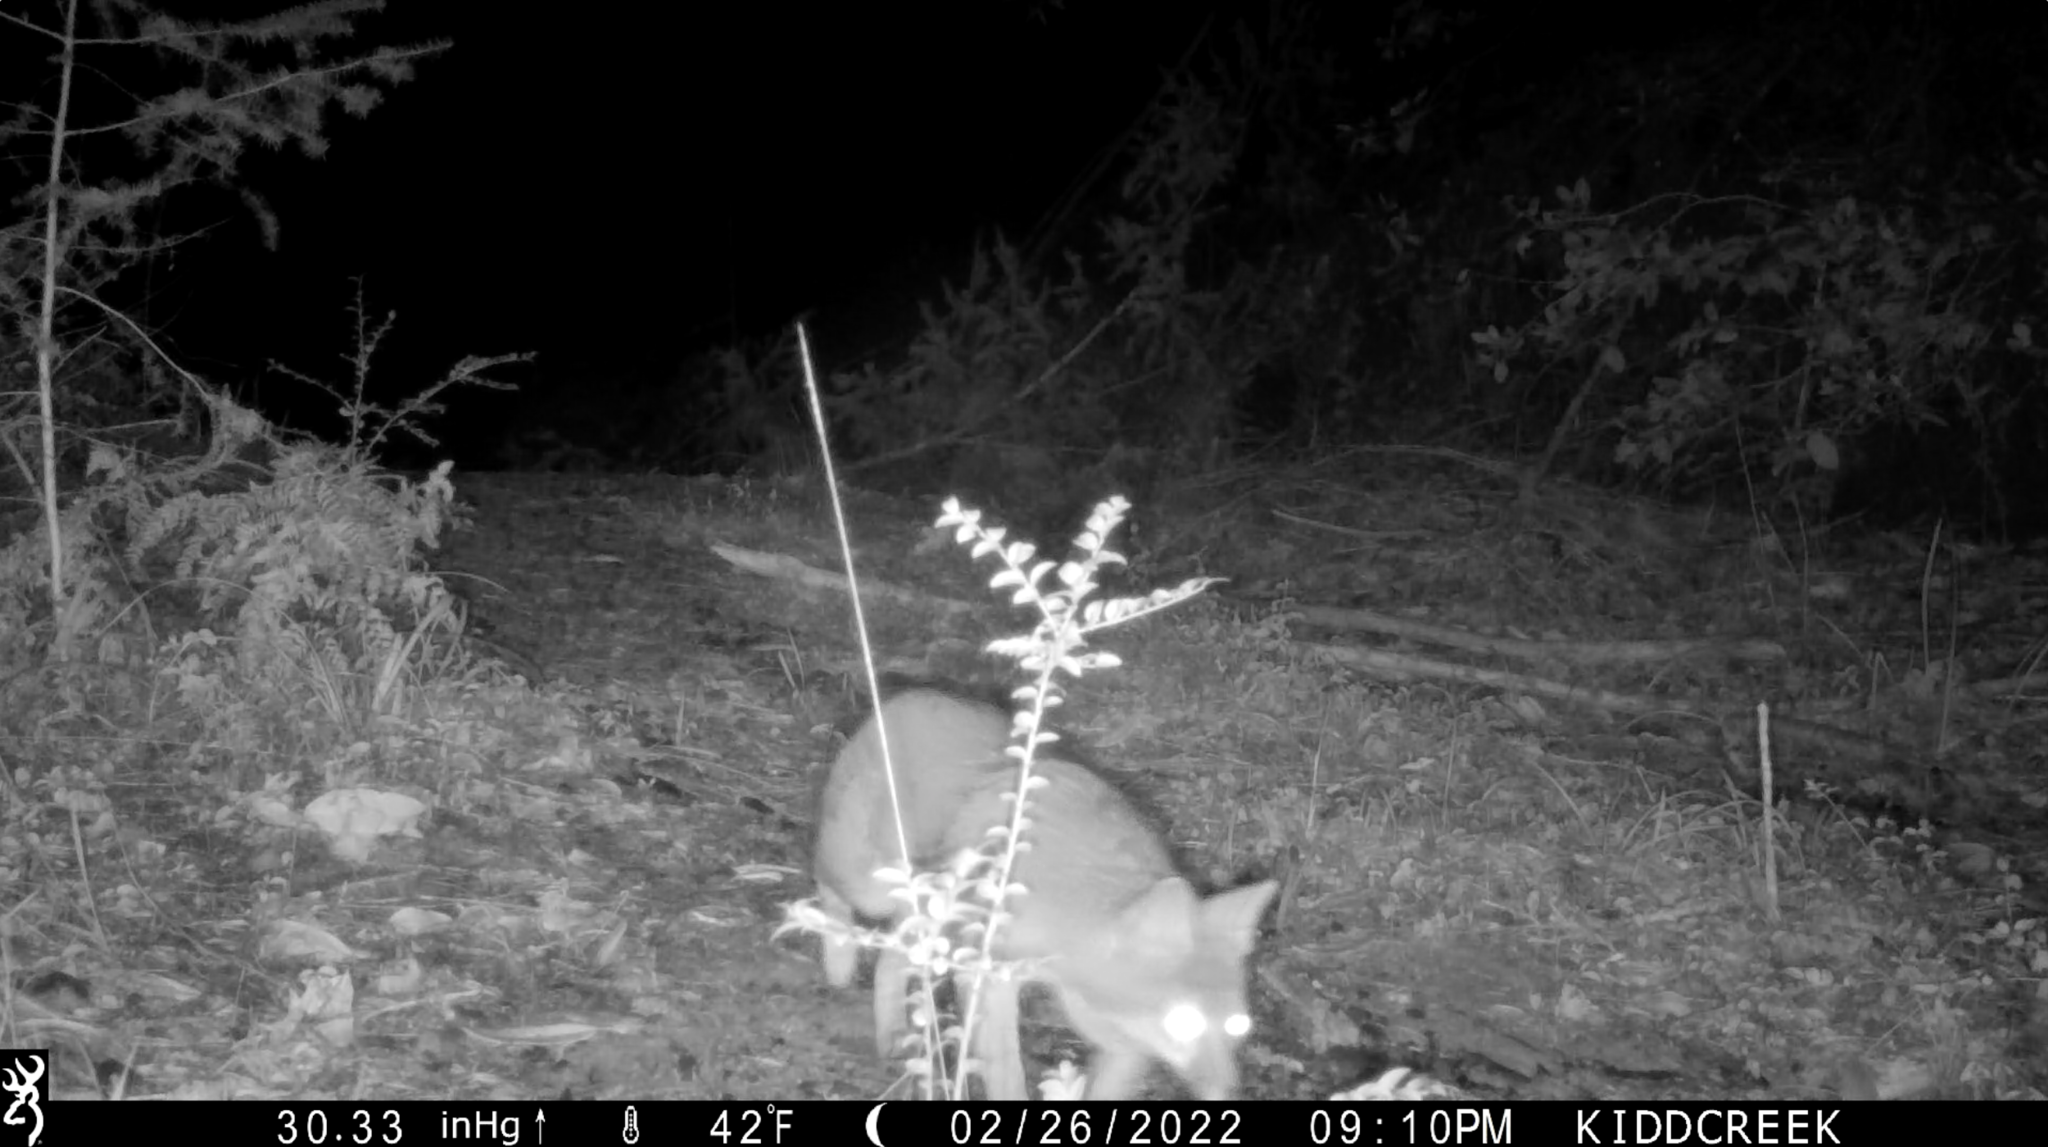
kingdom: Animalia
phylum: Chordata
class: Mammalia
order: Carnivora
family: Canidae
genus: Urocyon
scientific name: Urocyon cinereoargenteus
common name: Gray fox
